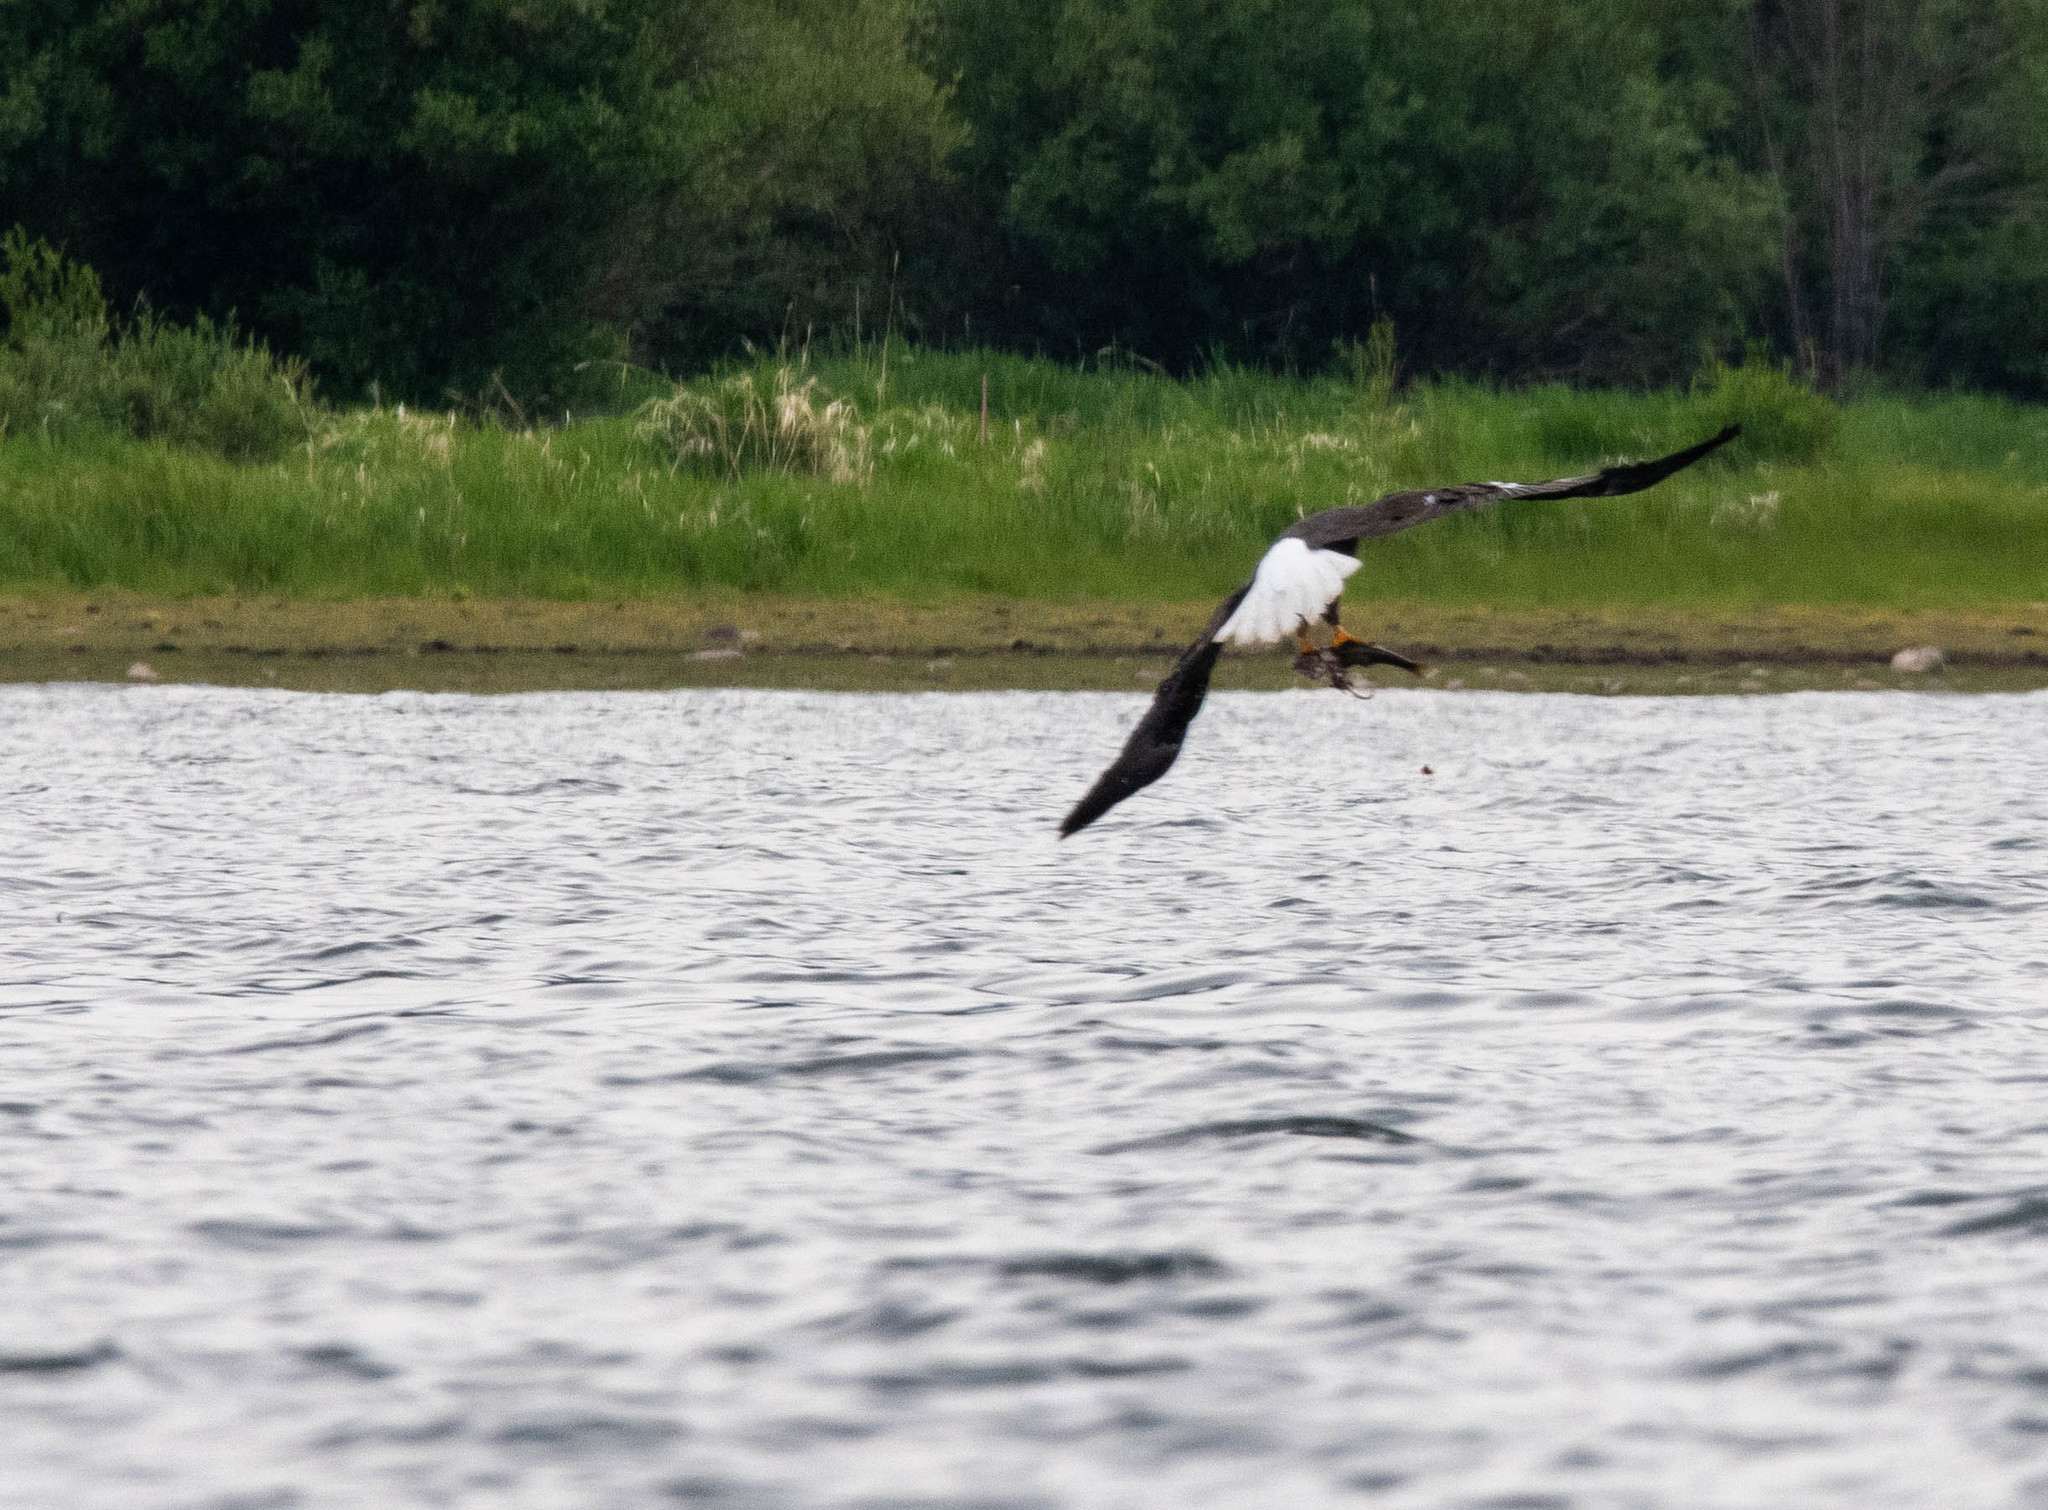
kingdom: Animalia
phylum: Chordata
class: Aves
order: Accipitriformes
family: Accipitridae
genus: Haliaeetus
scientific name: Haliaeetus leucocephalus
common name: Bald eagle
